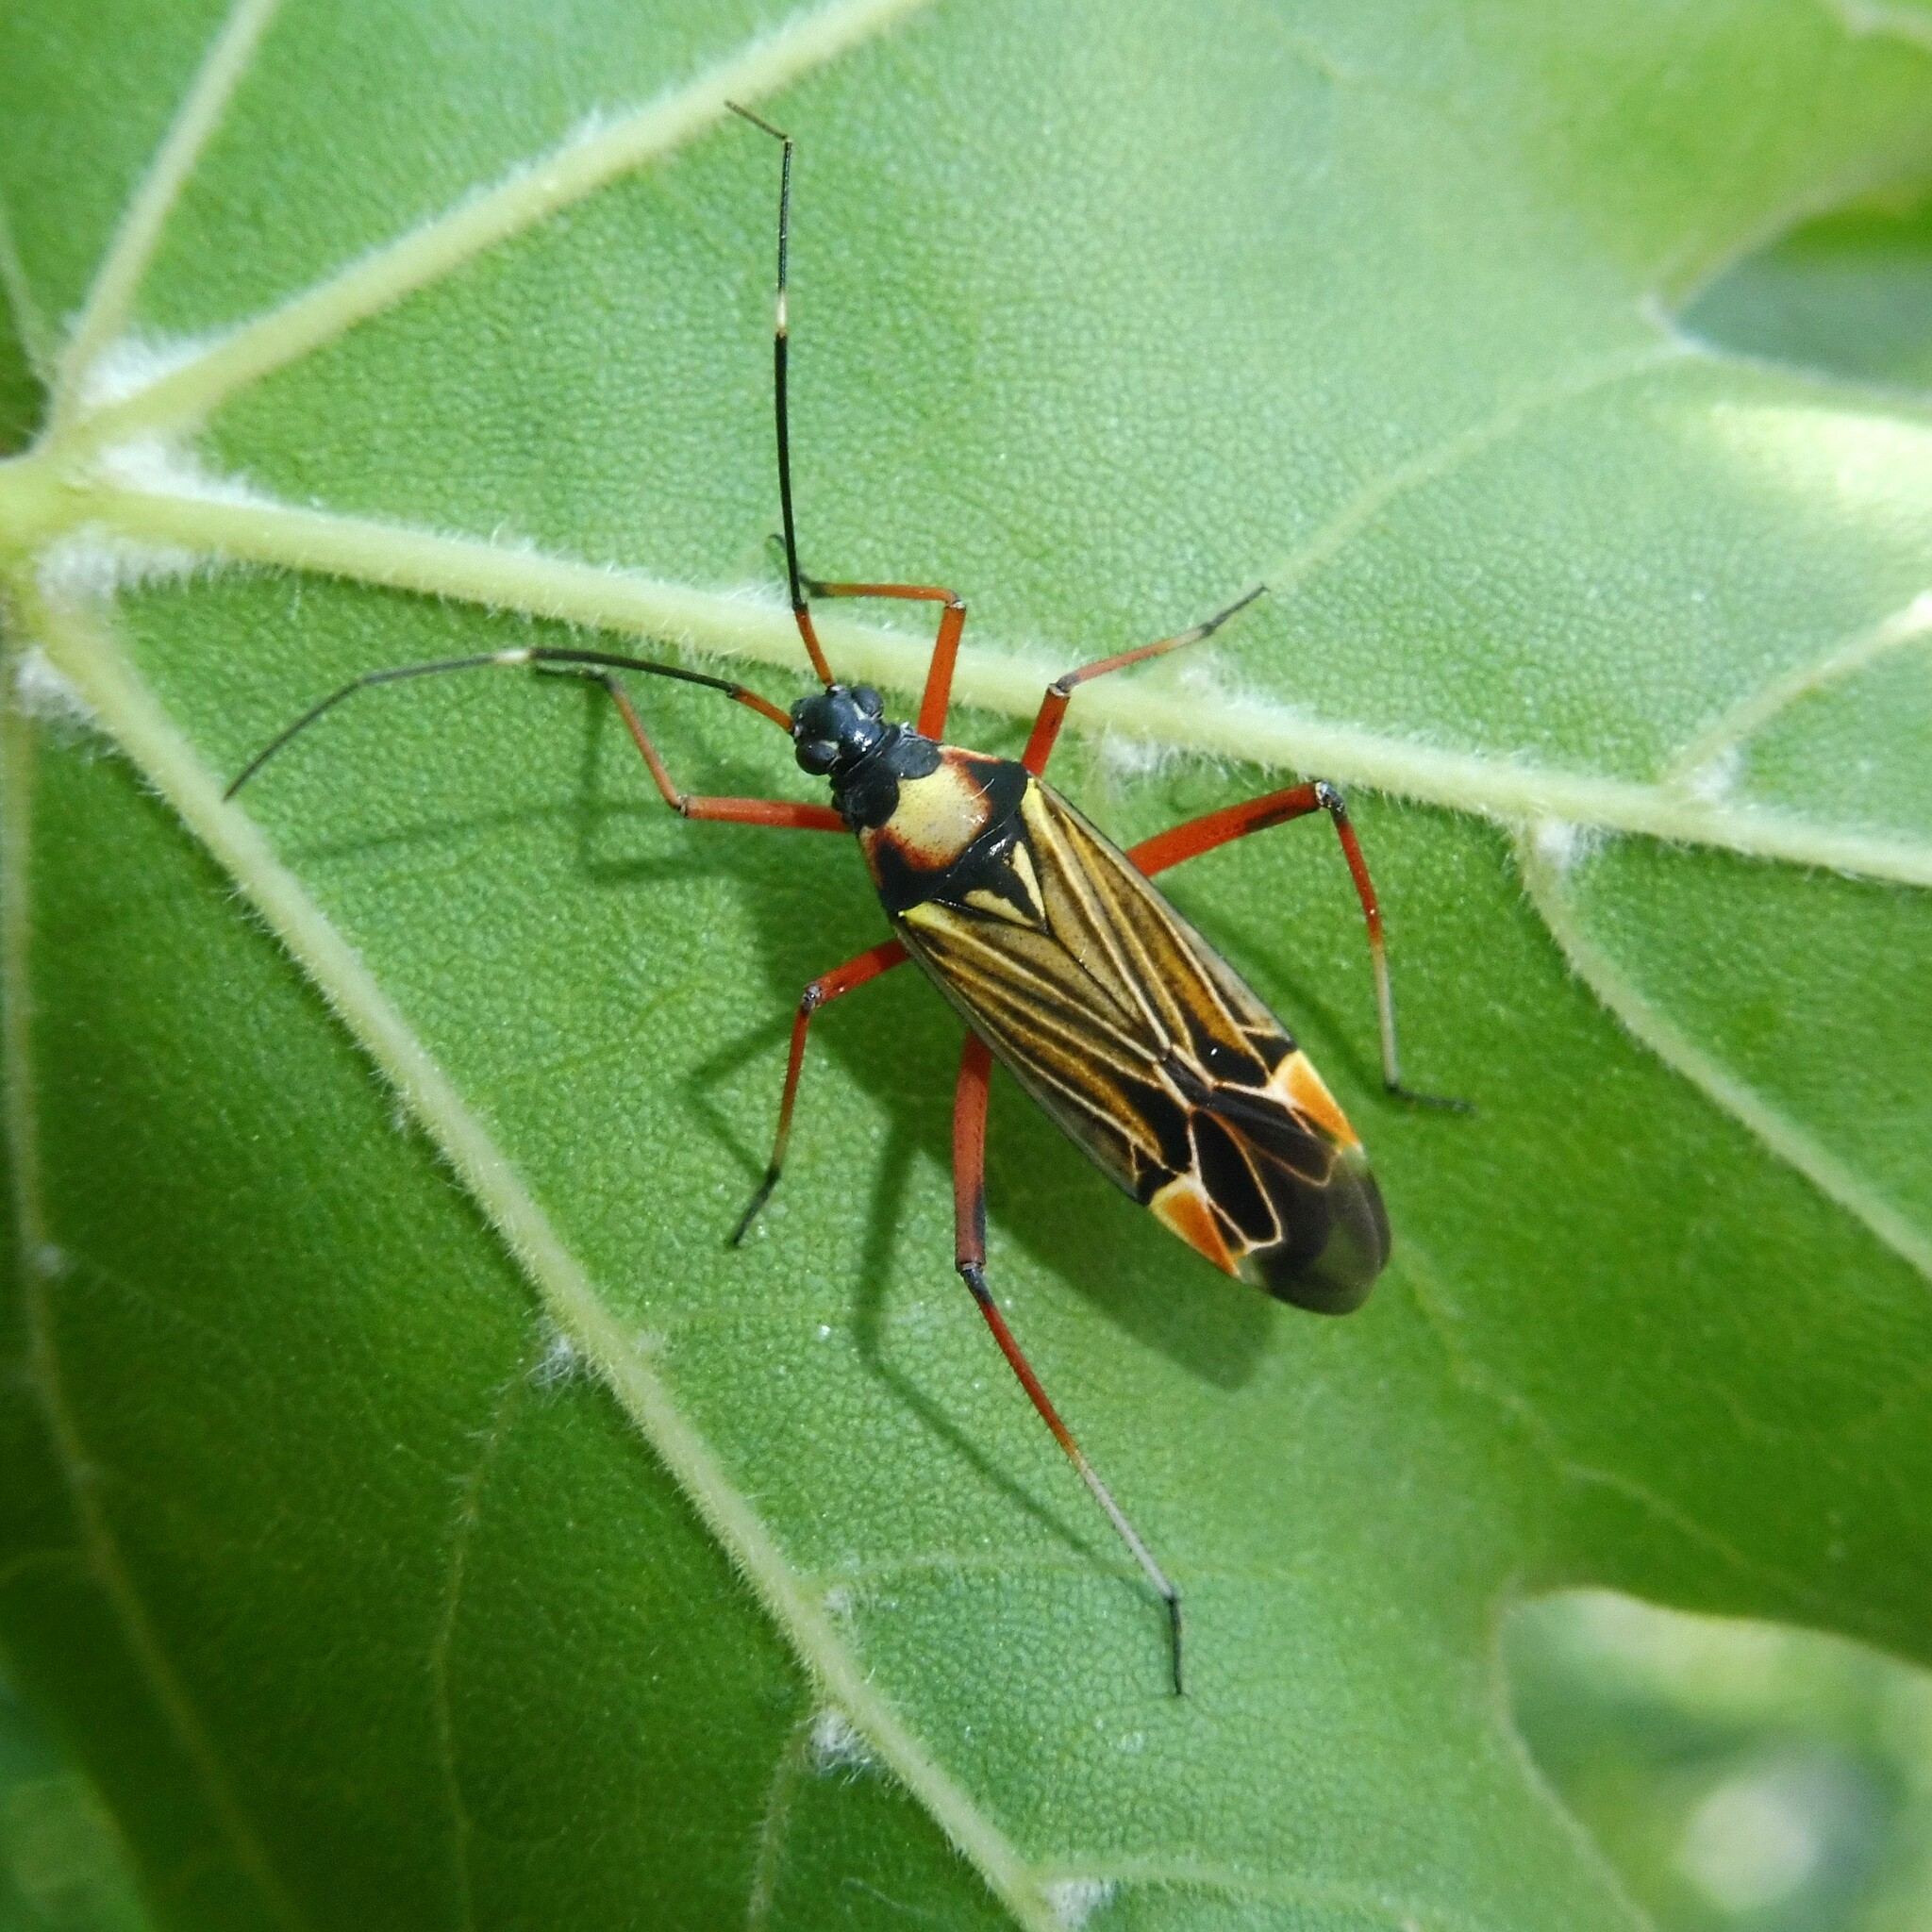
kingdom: Animalia
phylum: Arthropoda
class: Insecta
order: Hemiptera
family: Miridae
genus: Miris
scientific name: Miris striatus
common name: Fine streaked bugkin
